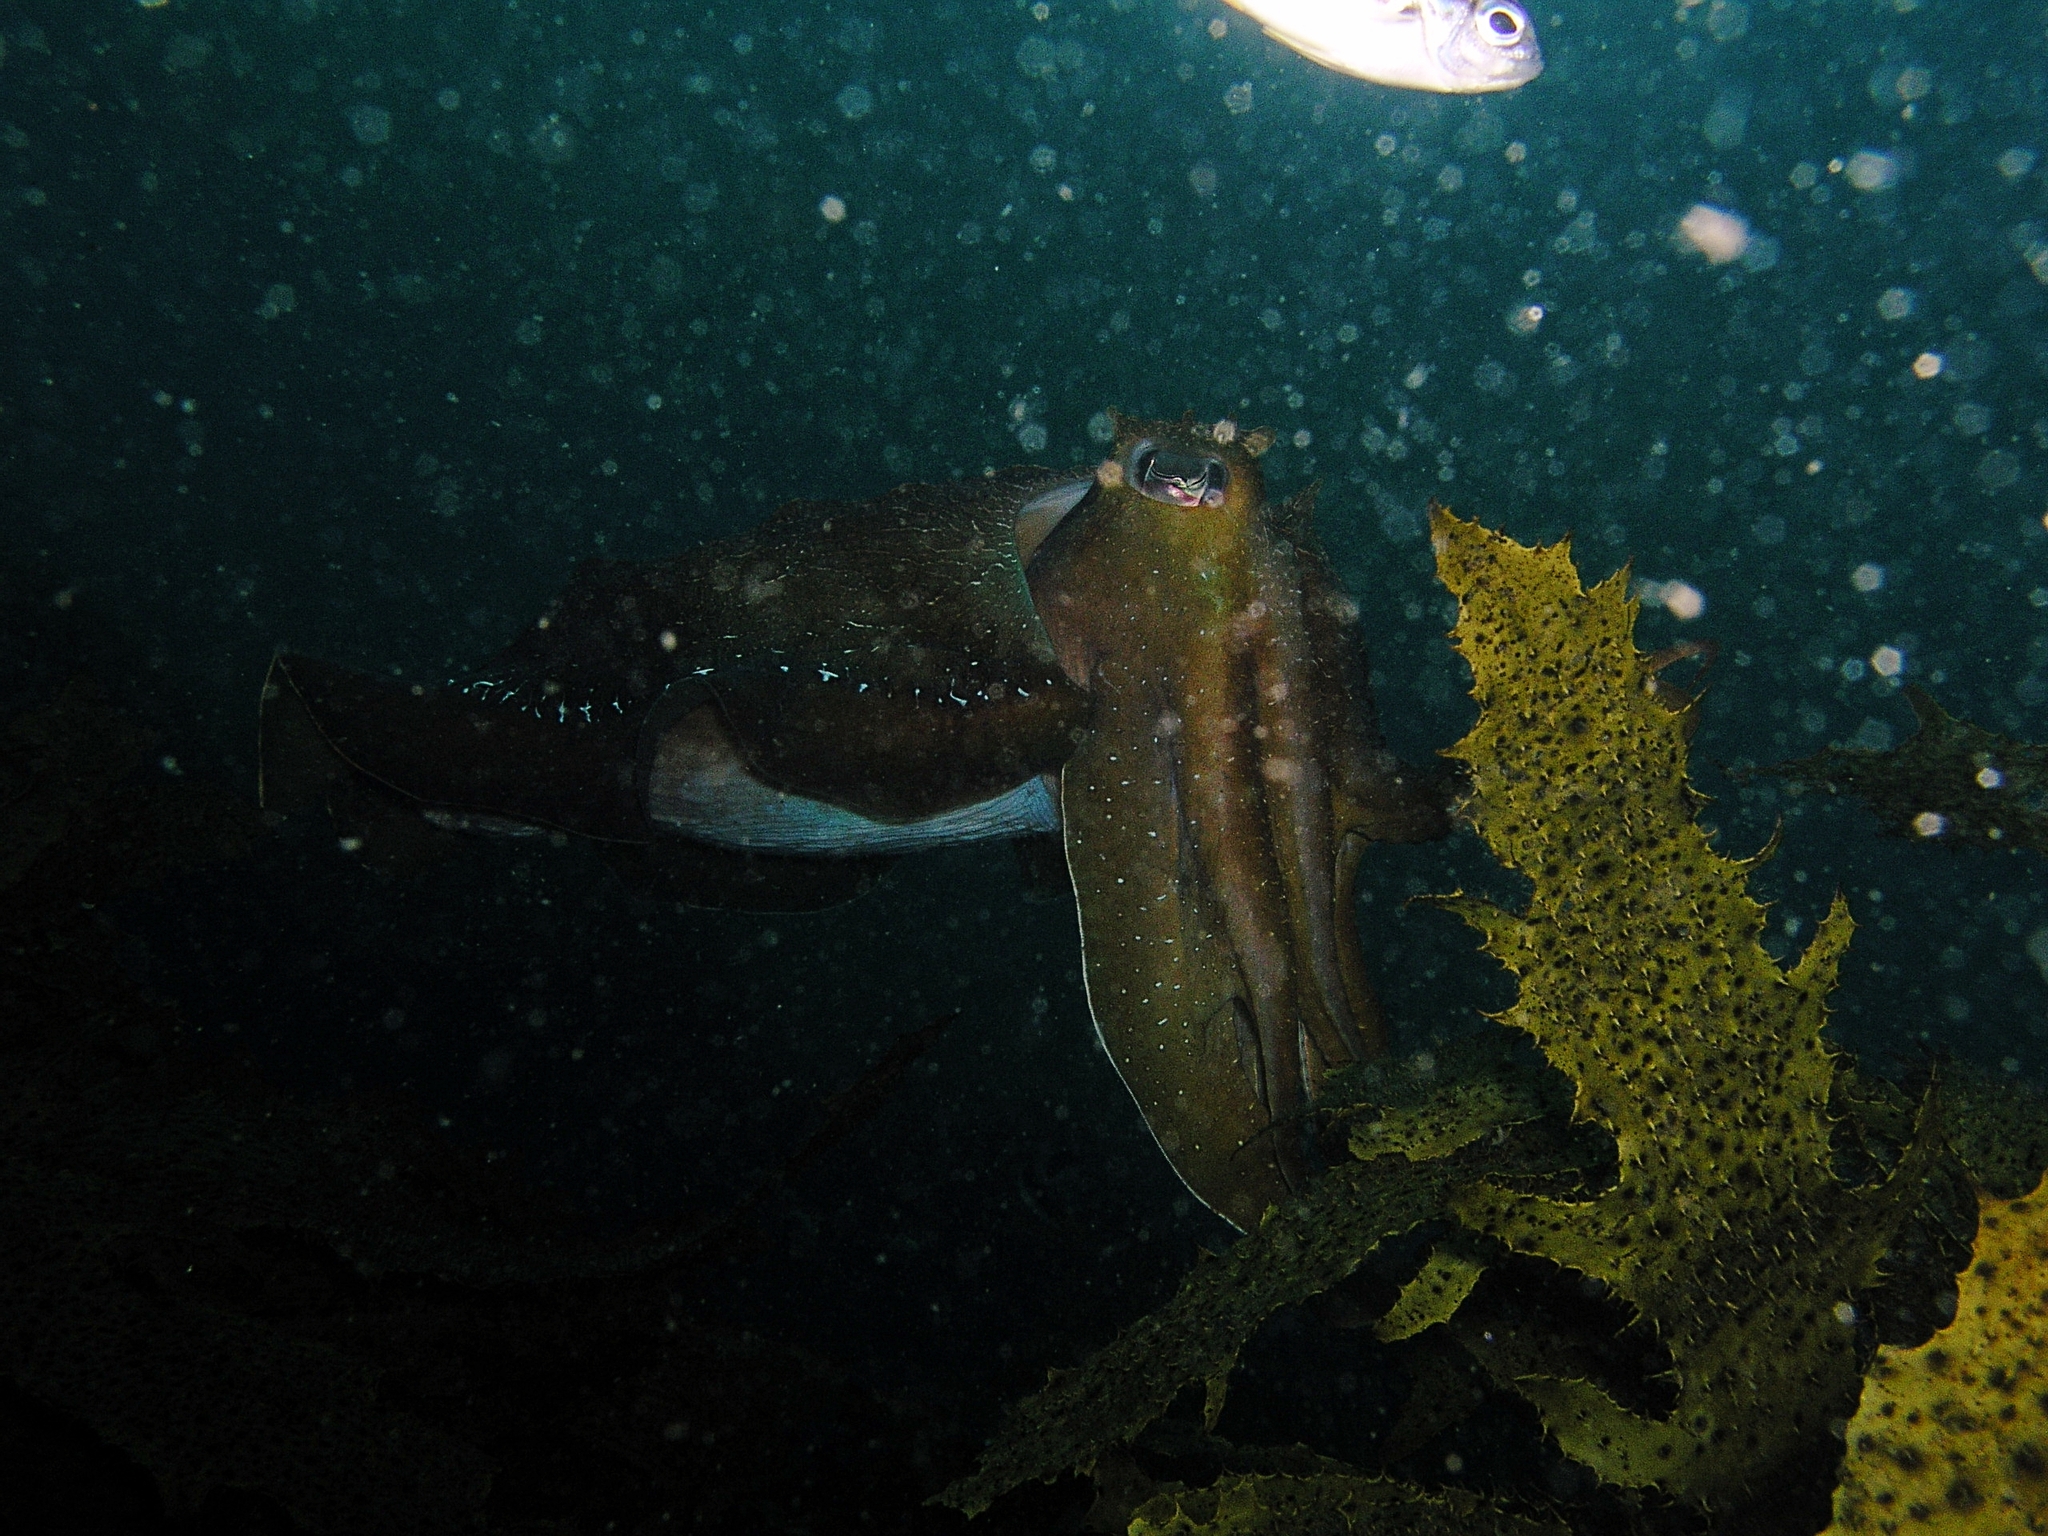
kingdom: Animalia
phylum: Mollusca
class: Cephalopoda
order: Sepiida
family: Sepiidae
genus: Ascarosepion
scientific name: Ascarosepion apama
